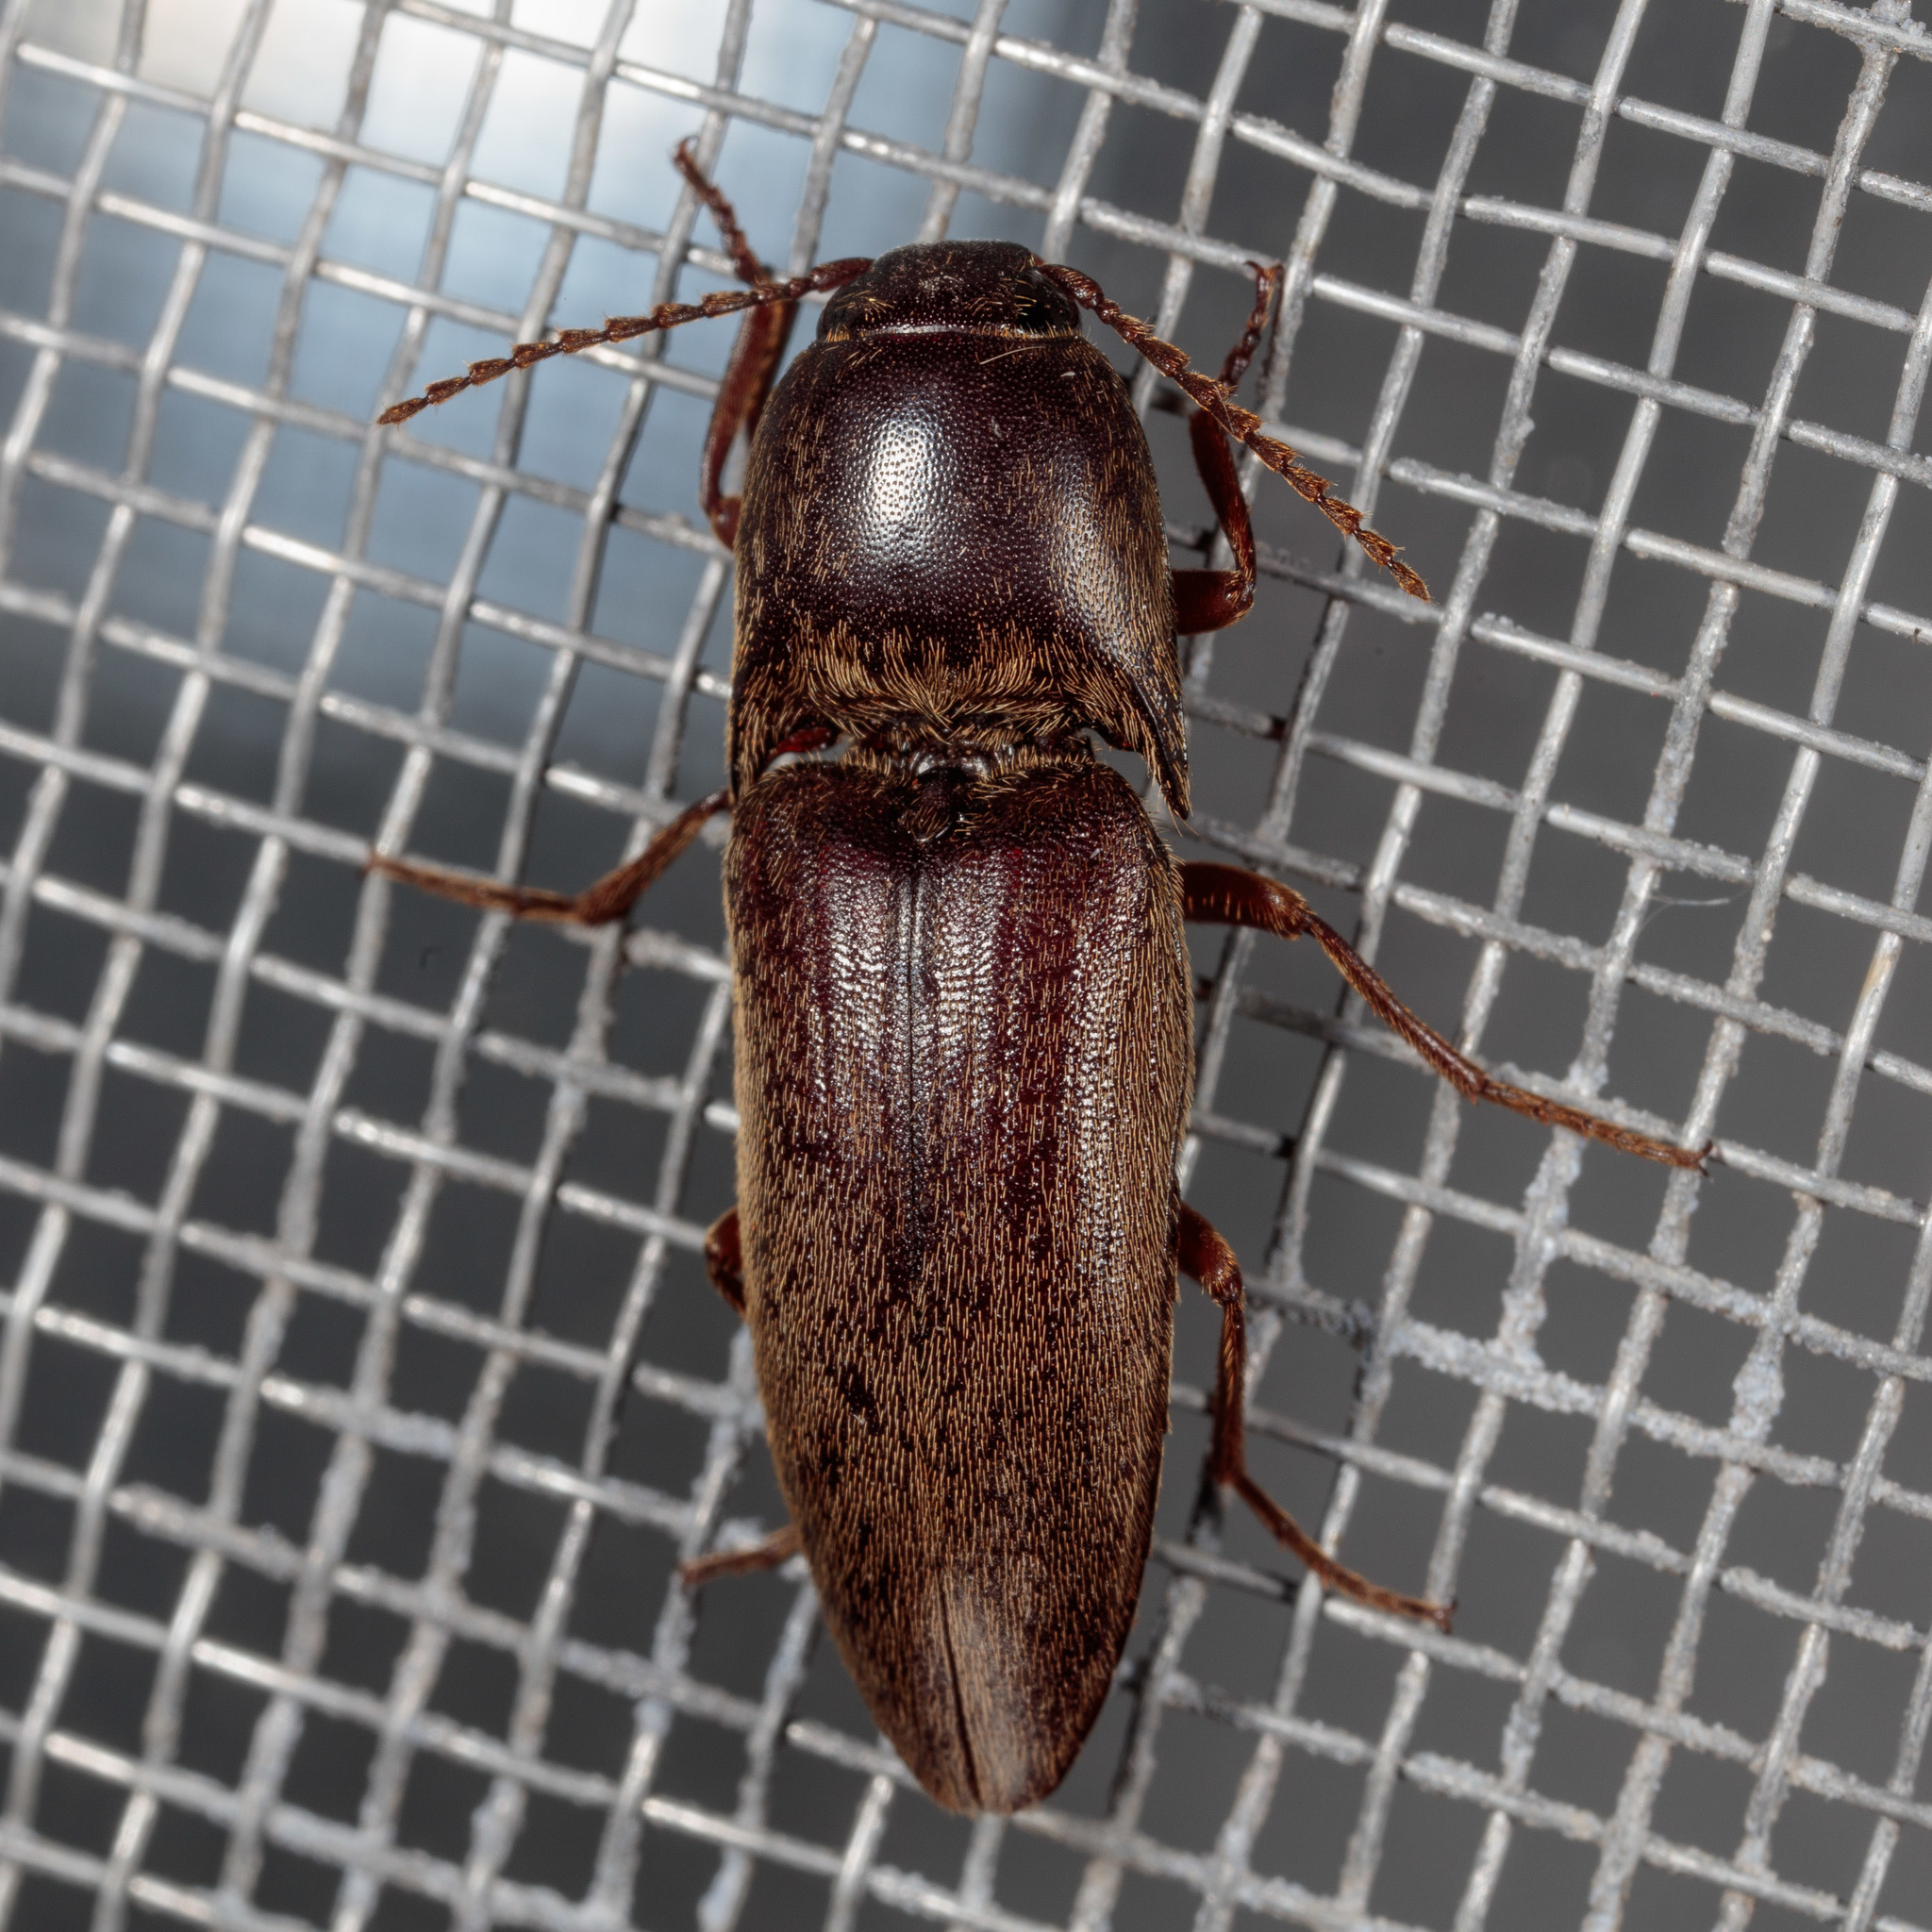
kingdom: Animalia
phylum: Arthropoda
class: Insecta
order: Coleoptera
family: Elateridae
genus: Diplostethus
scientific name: Diplostethus
